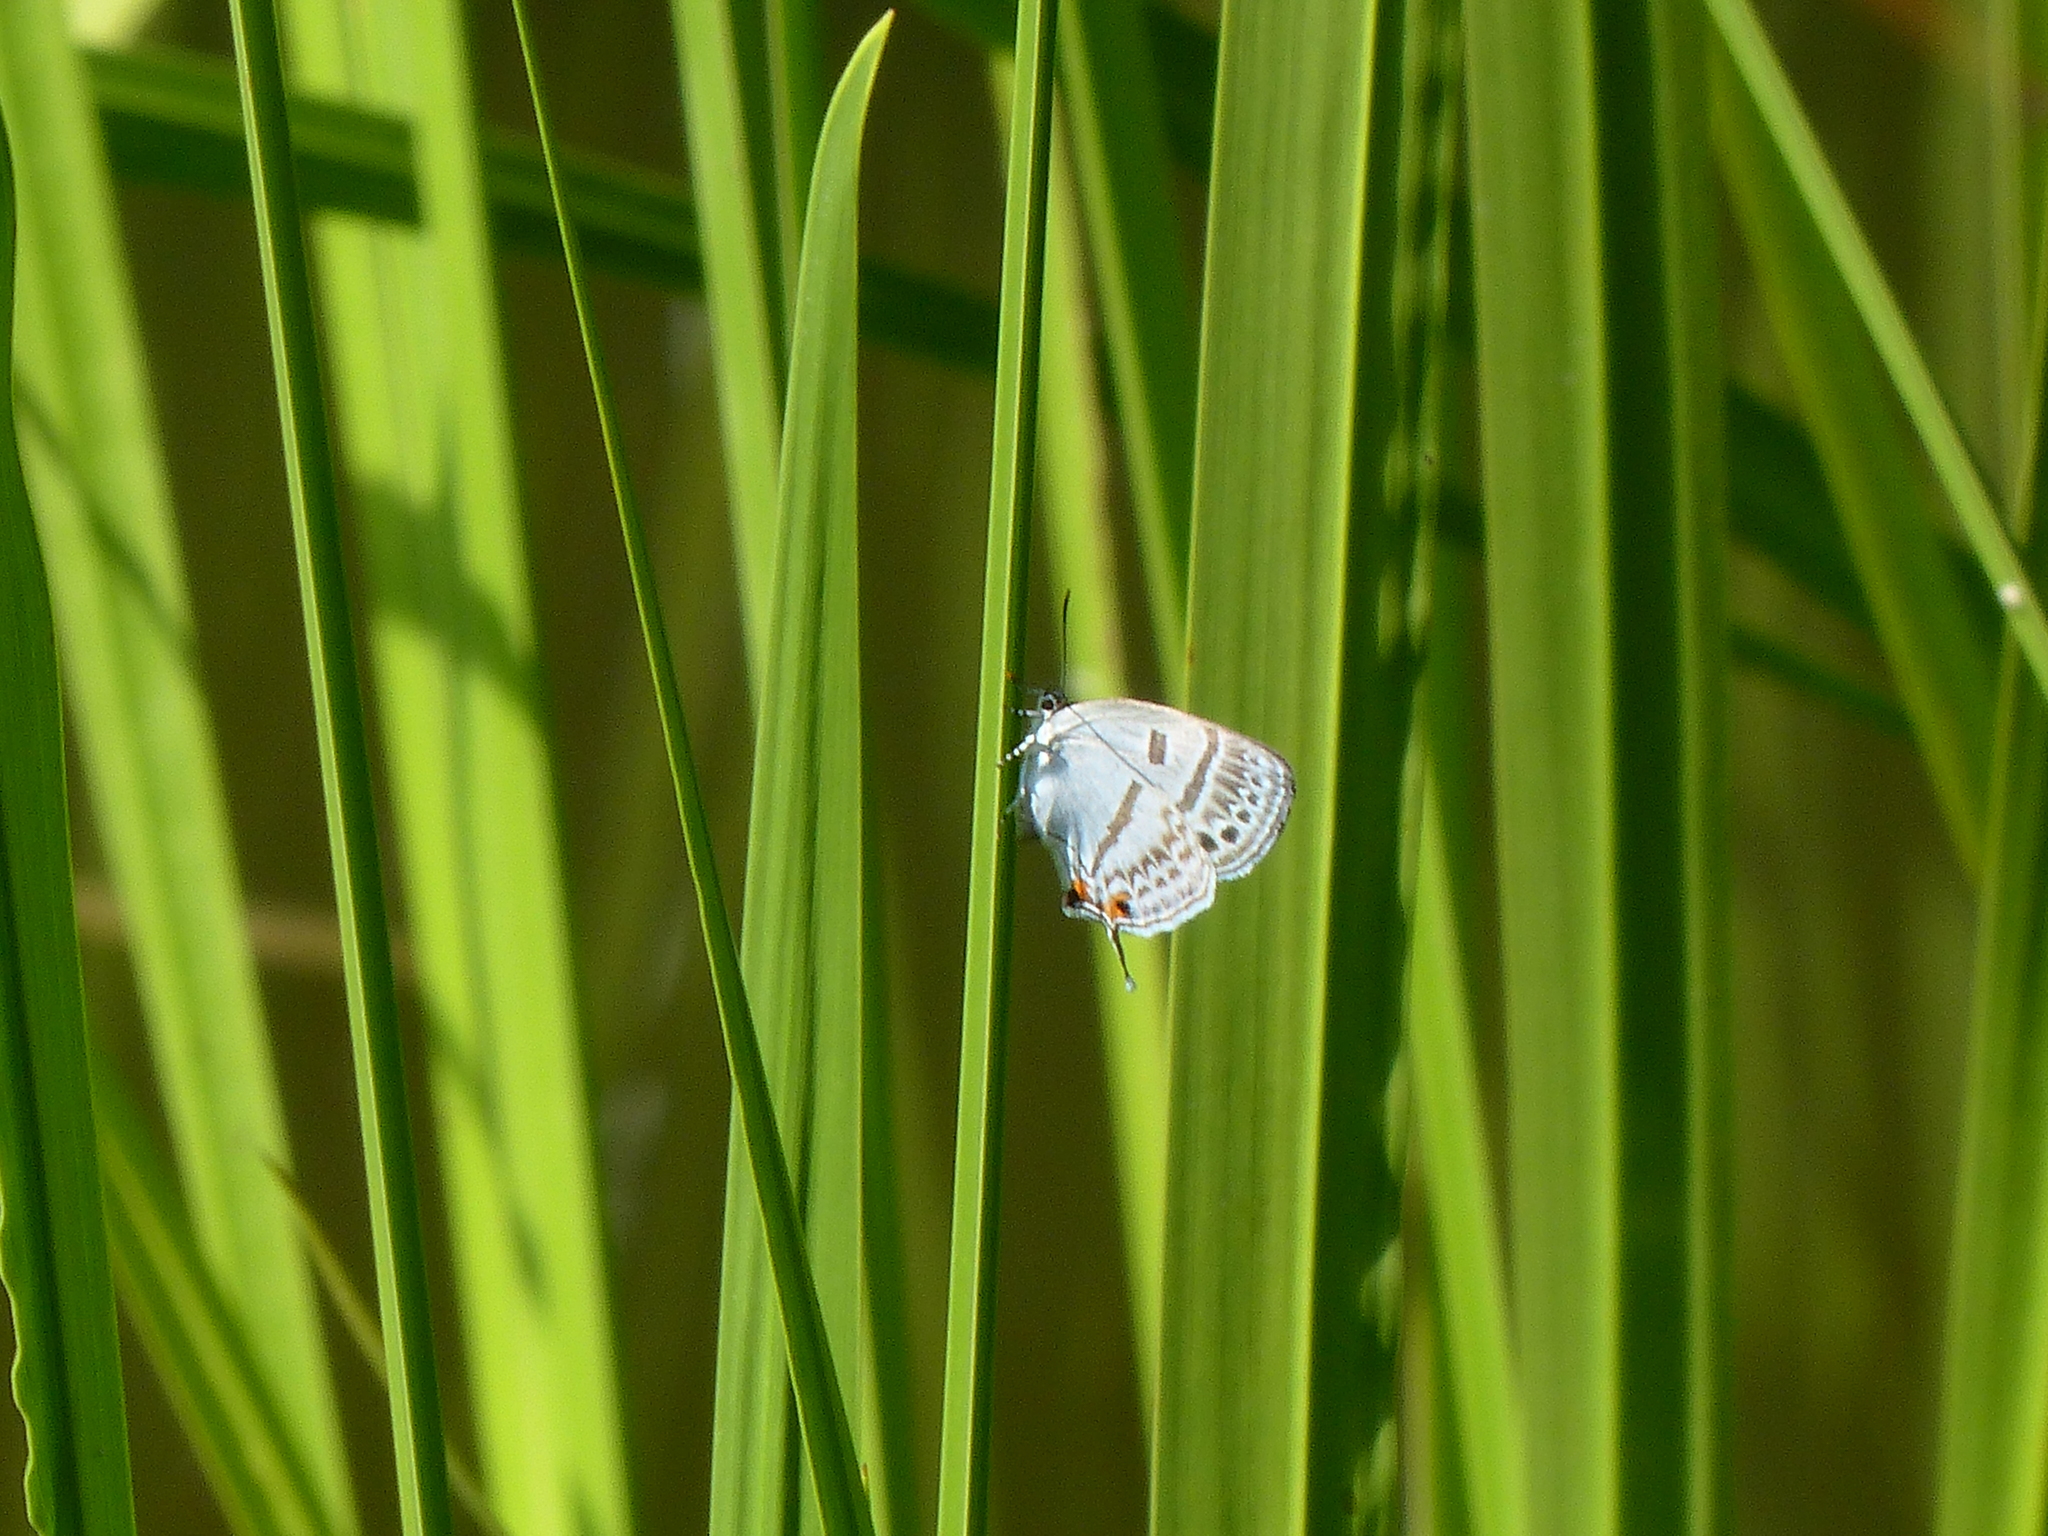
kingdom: Animalia
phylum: Arthropoda
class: Insecta
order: Lepidoptera
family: Lycaenidae
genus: Antigius
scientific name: Antigius attilia
